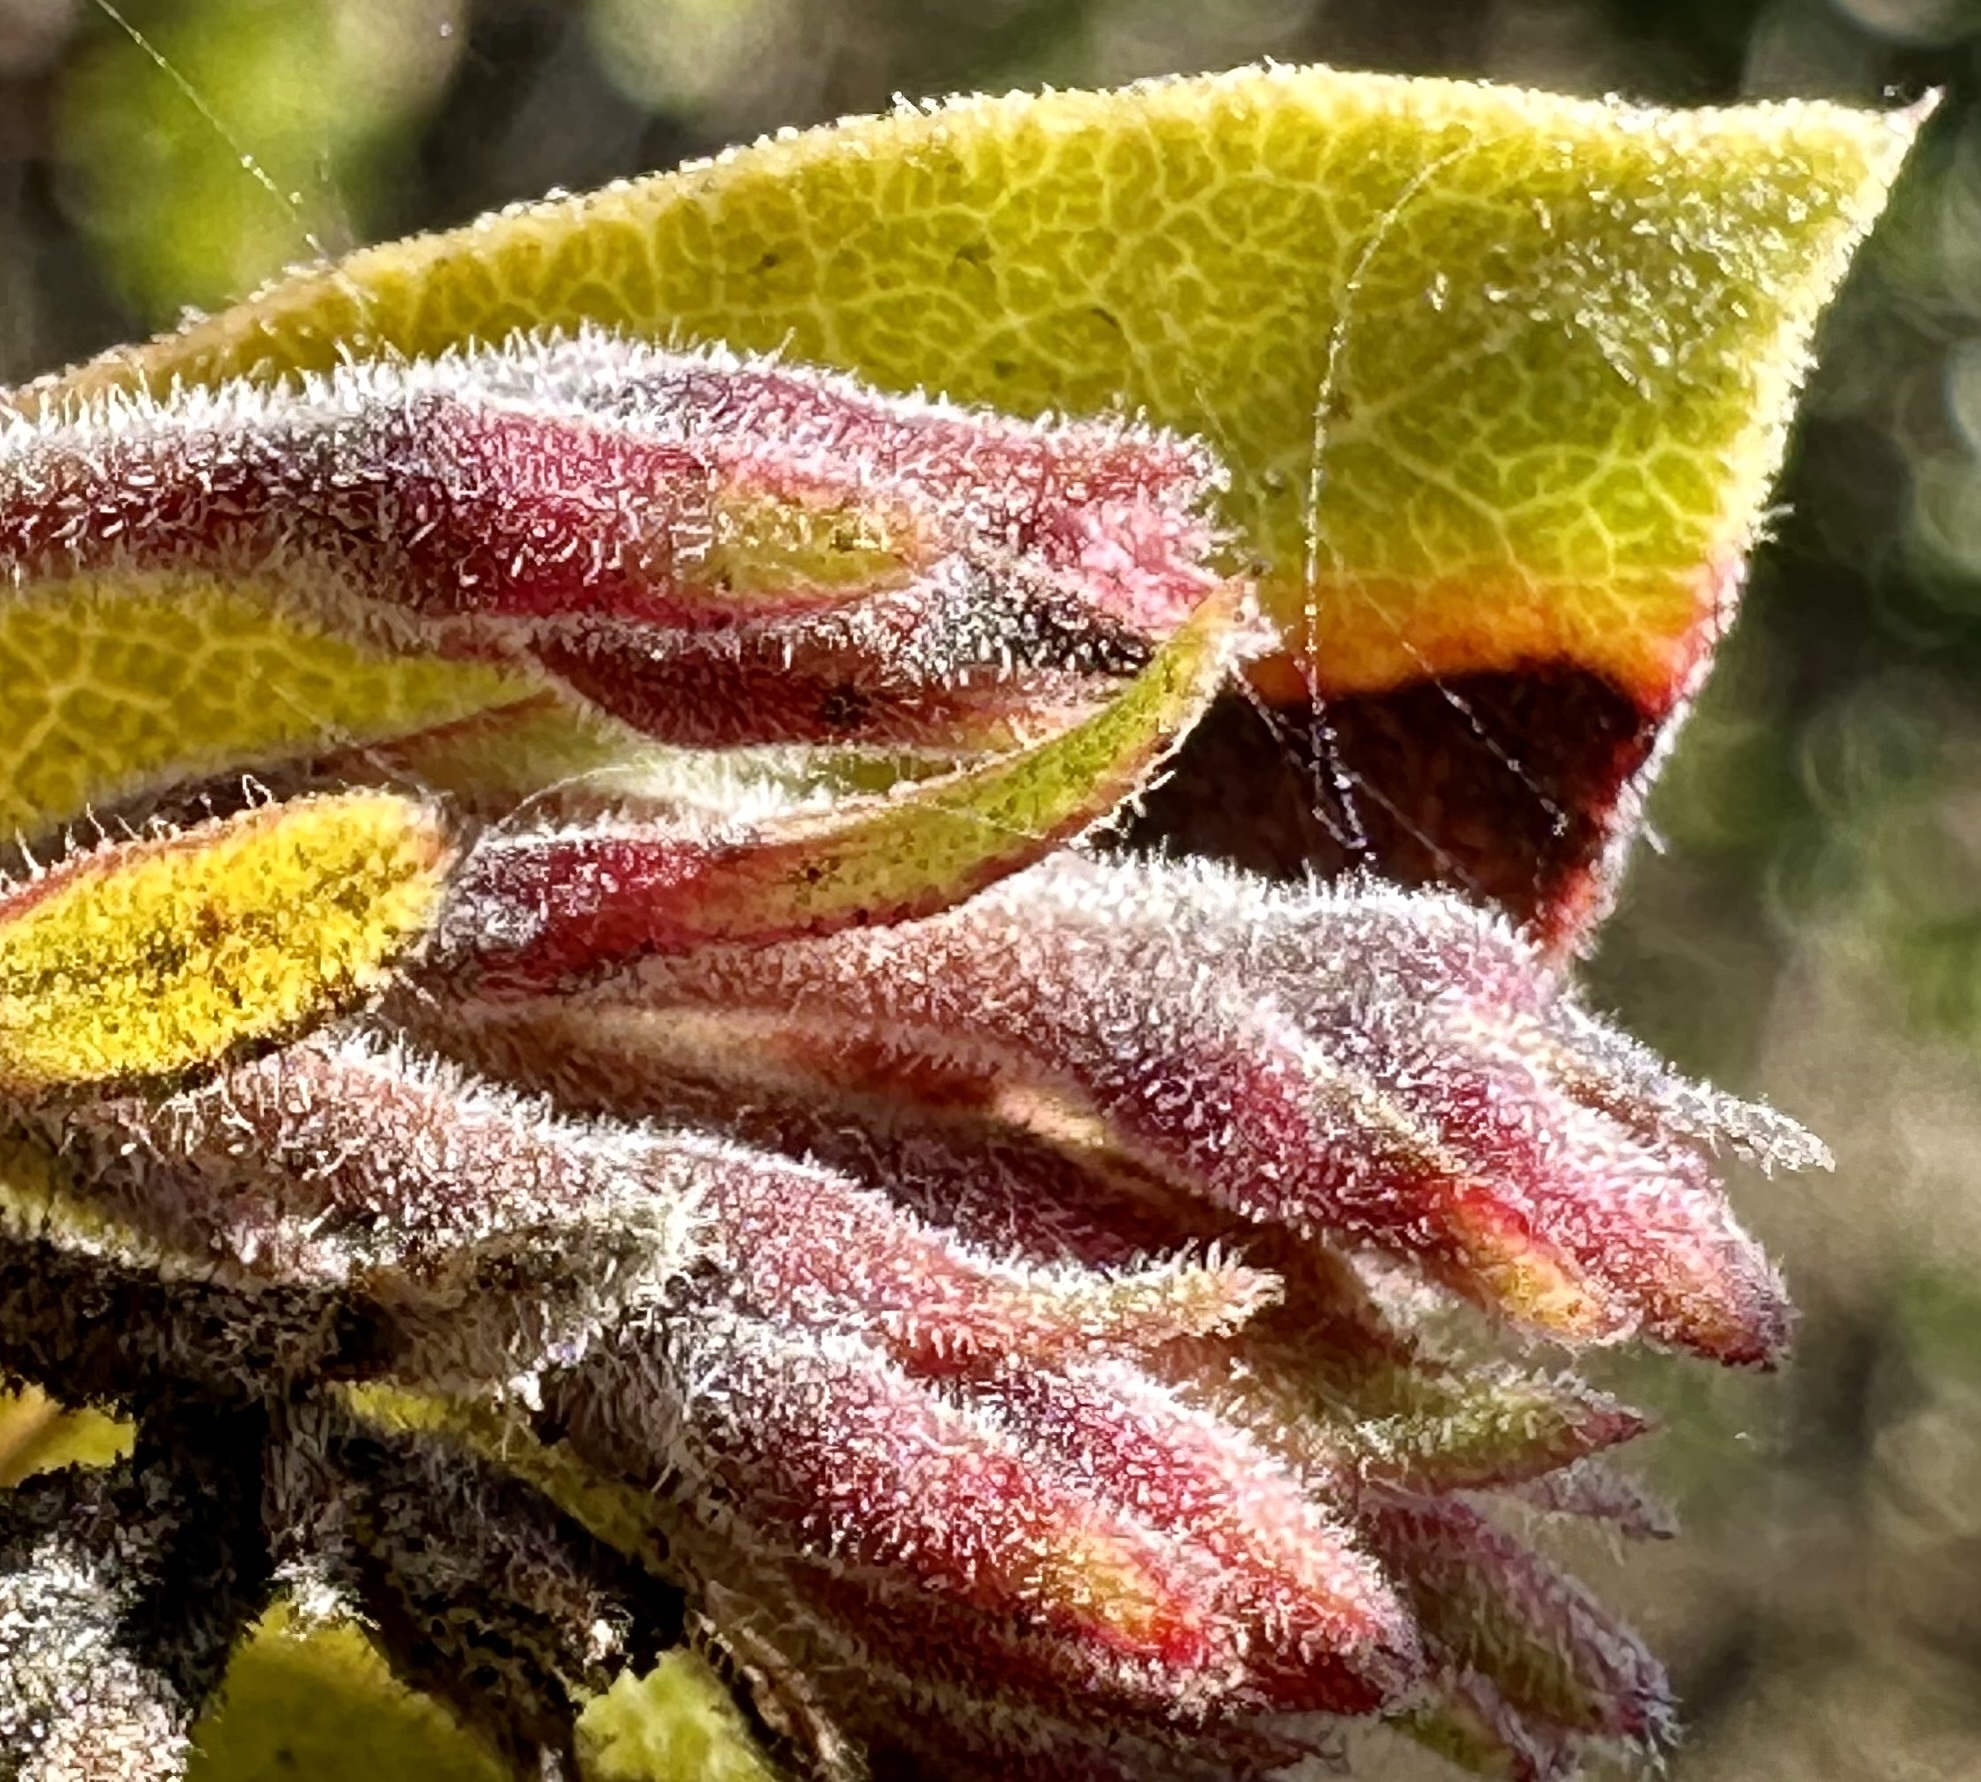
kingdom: Plantae
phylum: Tracheophyta
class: Magnoliopsida
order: Ericales
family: Ericaceae
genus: Arctostaphylos
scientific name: Arctostaphylos tomentosa
